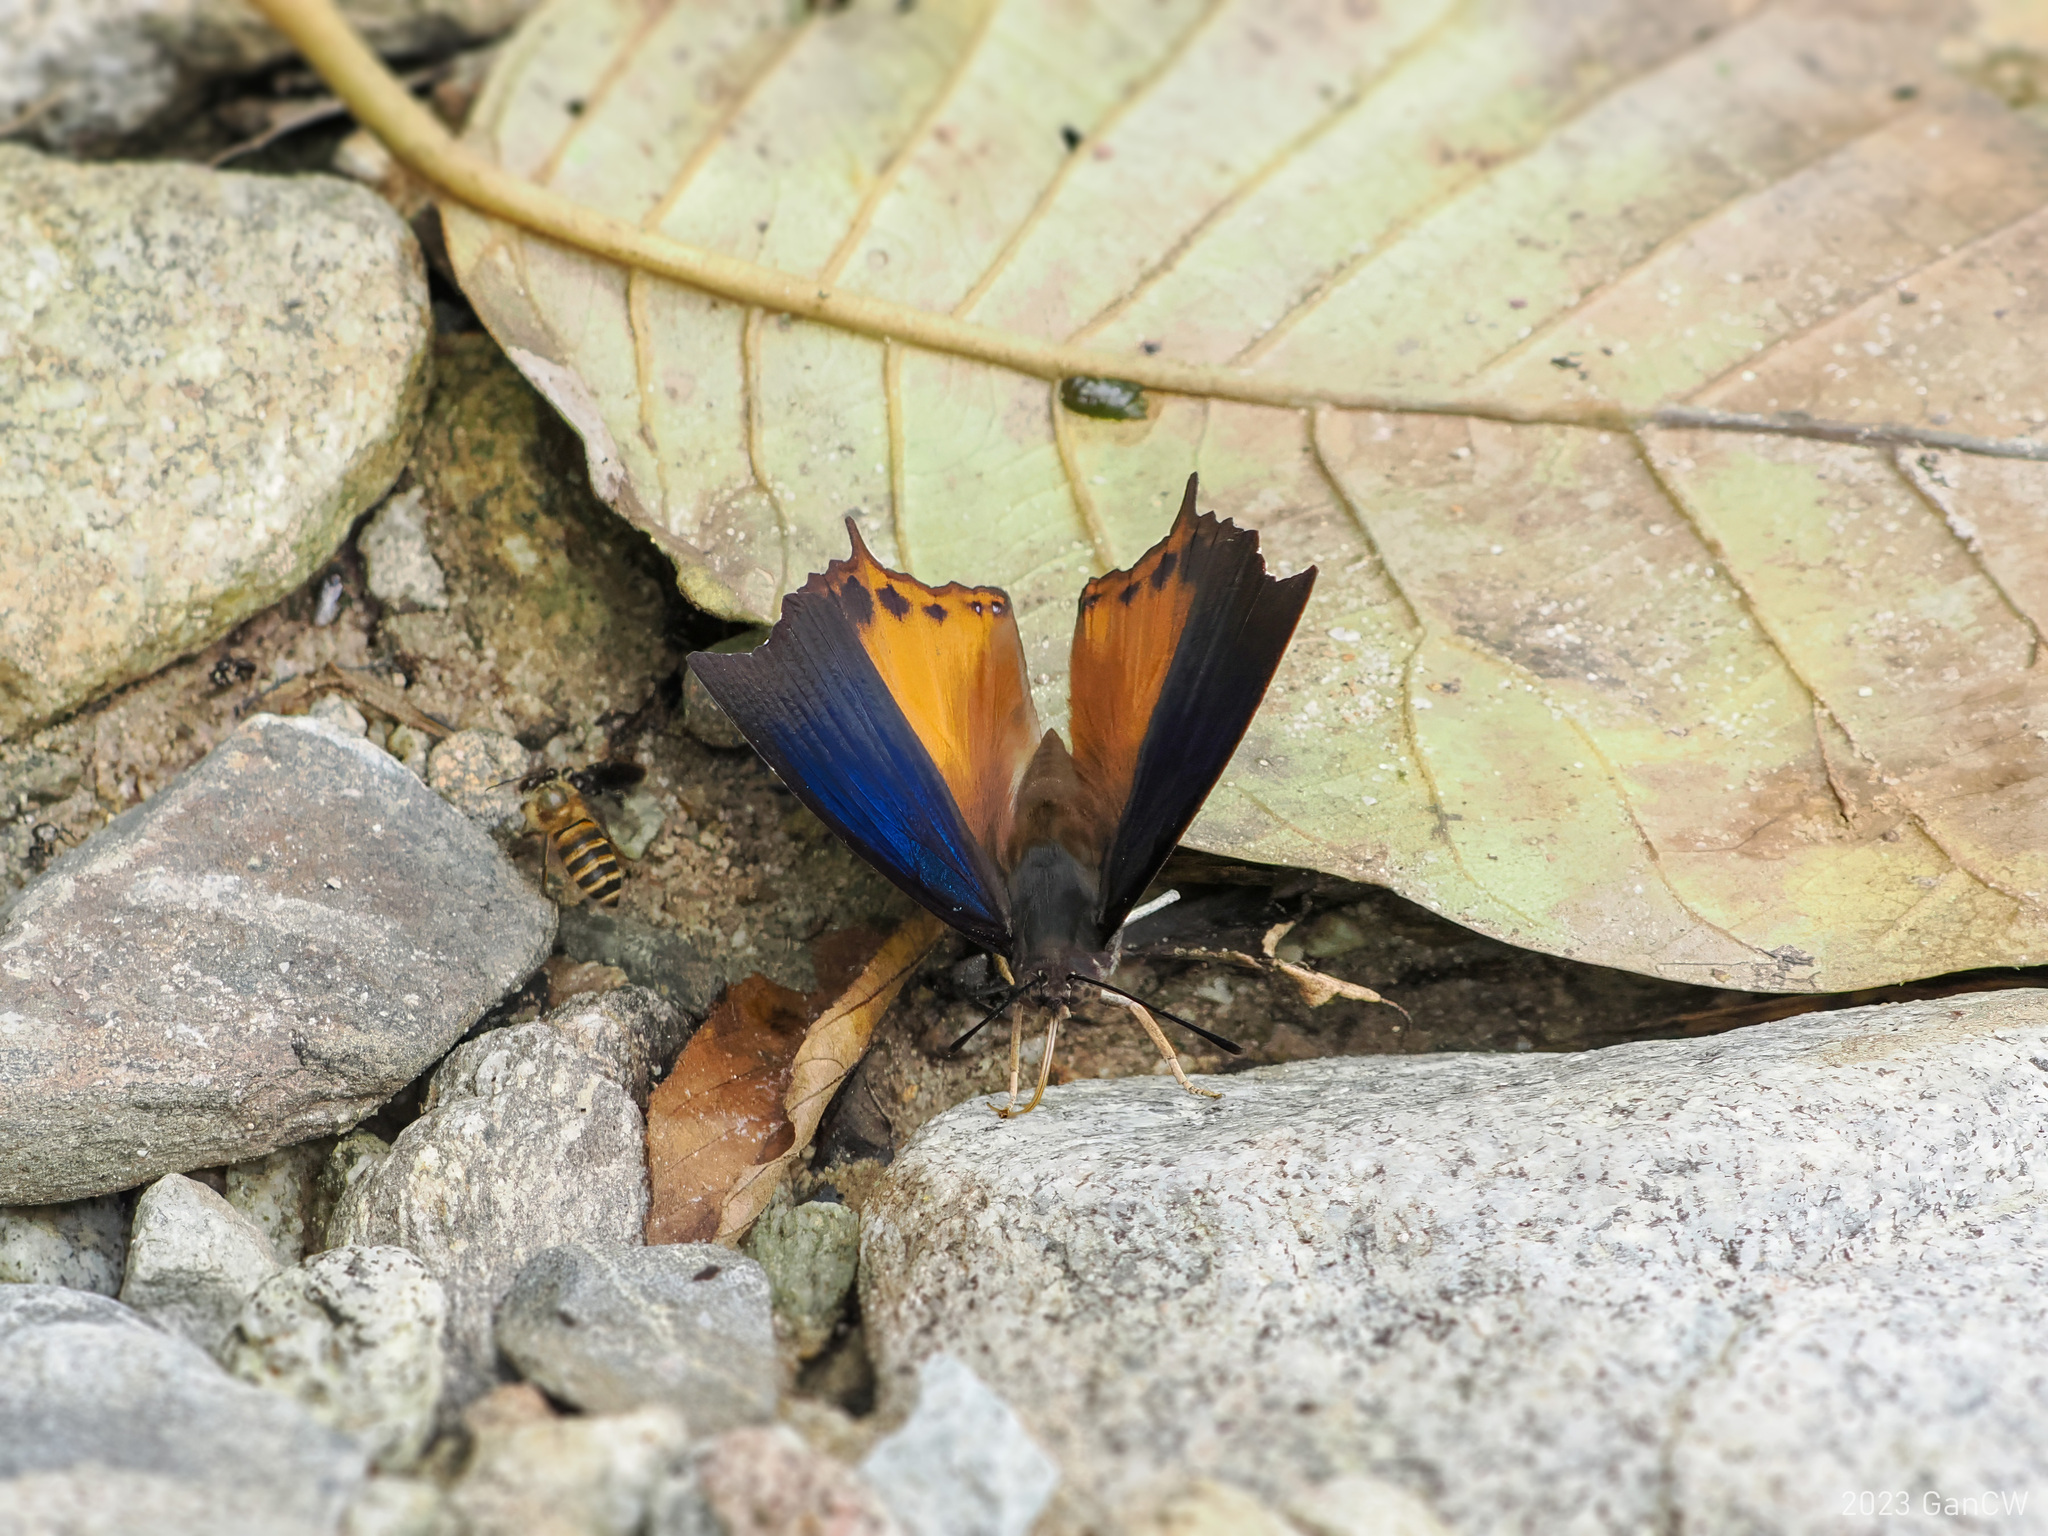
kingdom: Animalia
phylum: Arthropoda
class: Insecta
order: Lepidoptera
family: Nymphalidae
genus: Charaxes
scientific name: Charaxes mars
